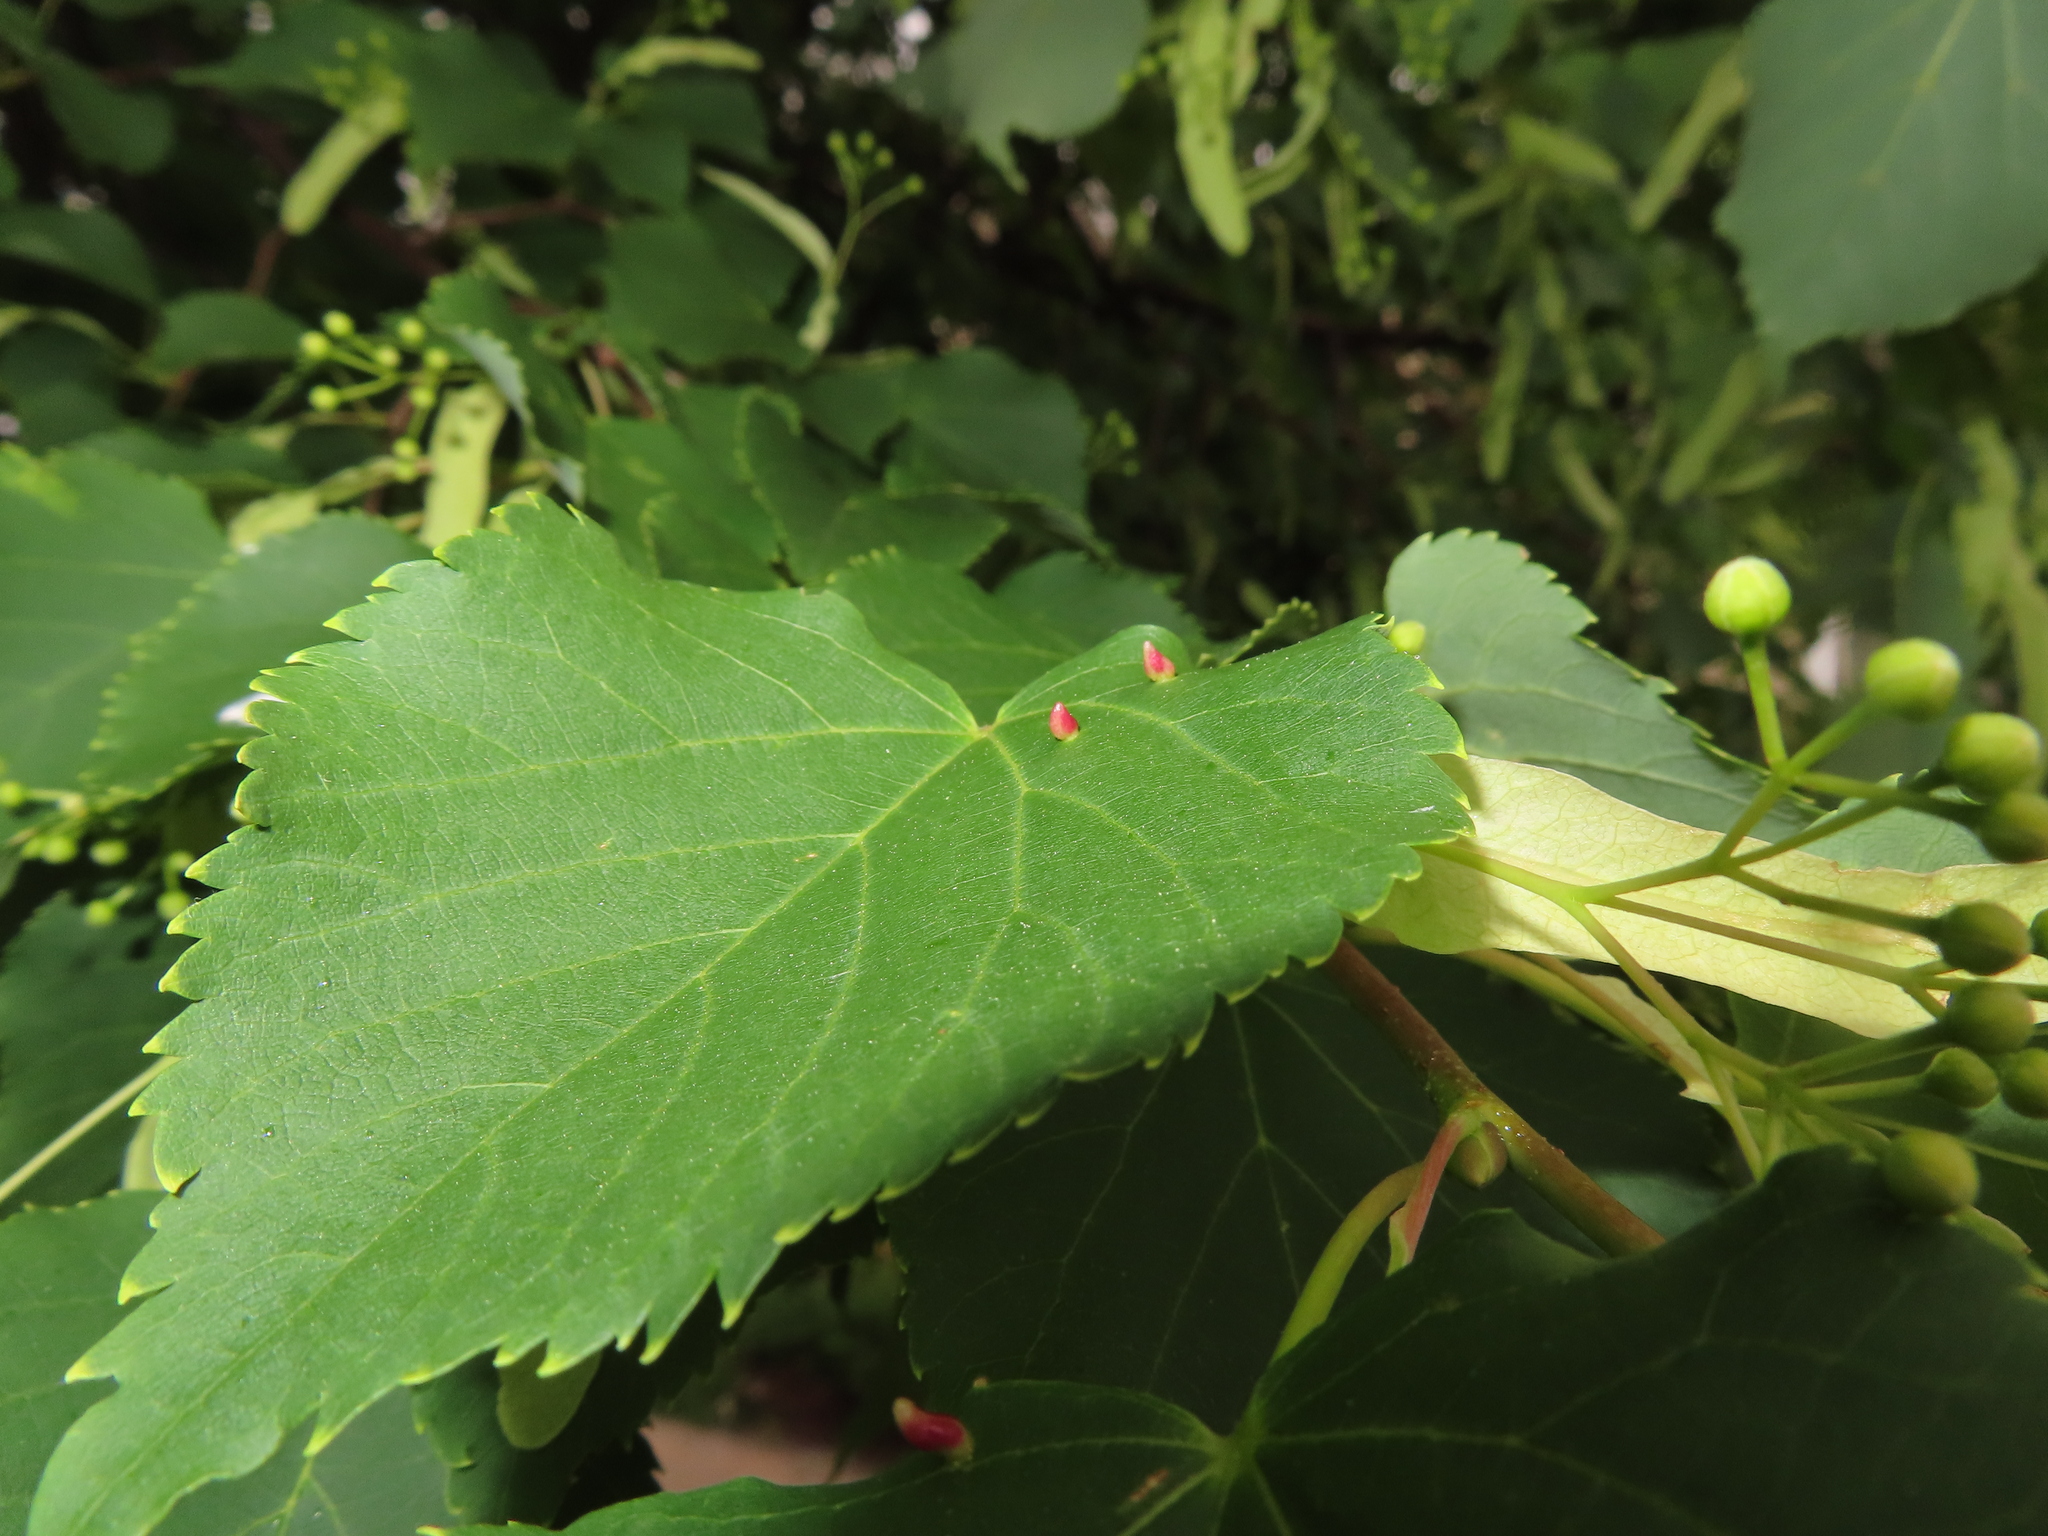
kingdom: Animalia
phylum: Arthropoda
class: Arachnida
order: Trombidiformes
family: Eriophyidae
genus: Eriophyes
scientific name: Eriophyes tiliae
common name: Red nail gall mite
